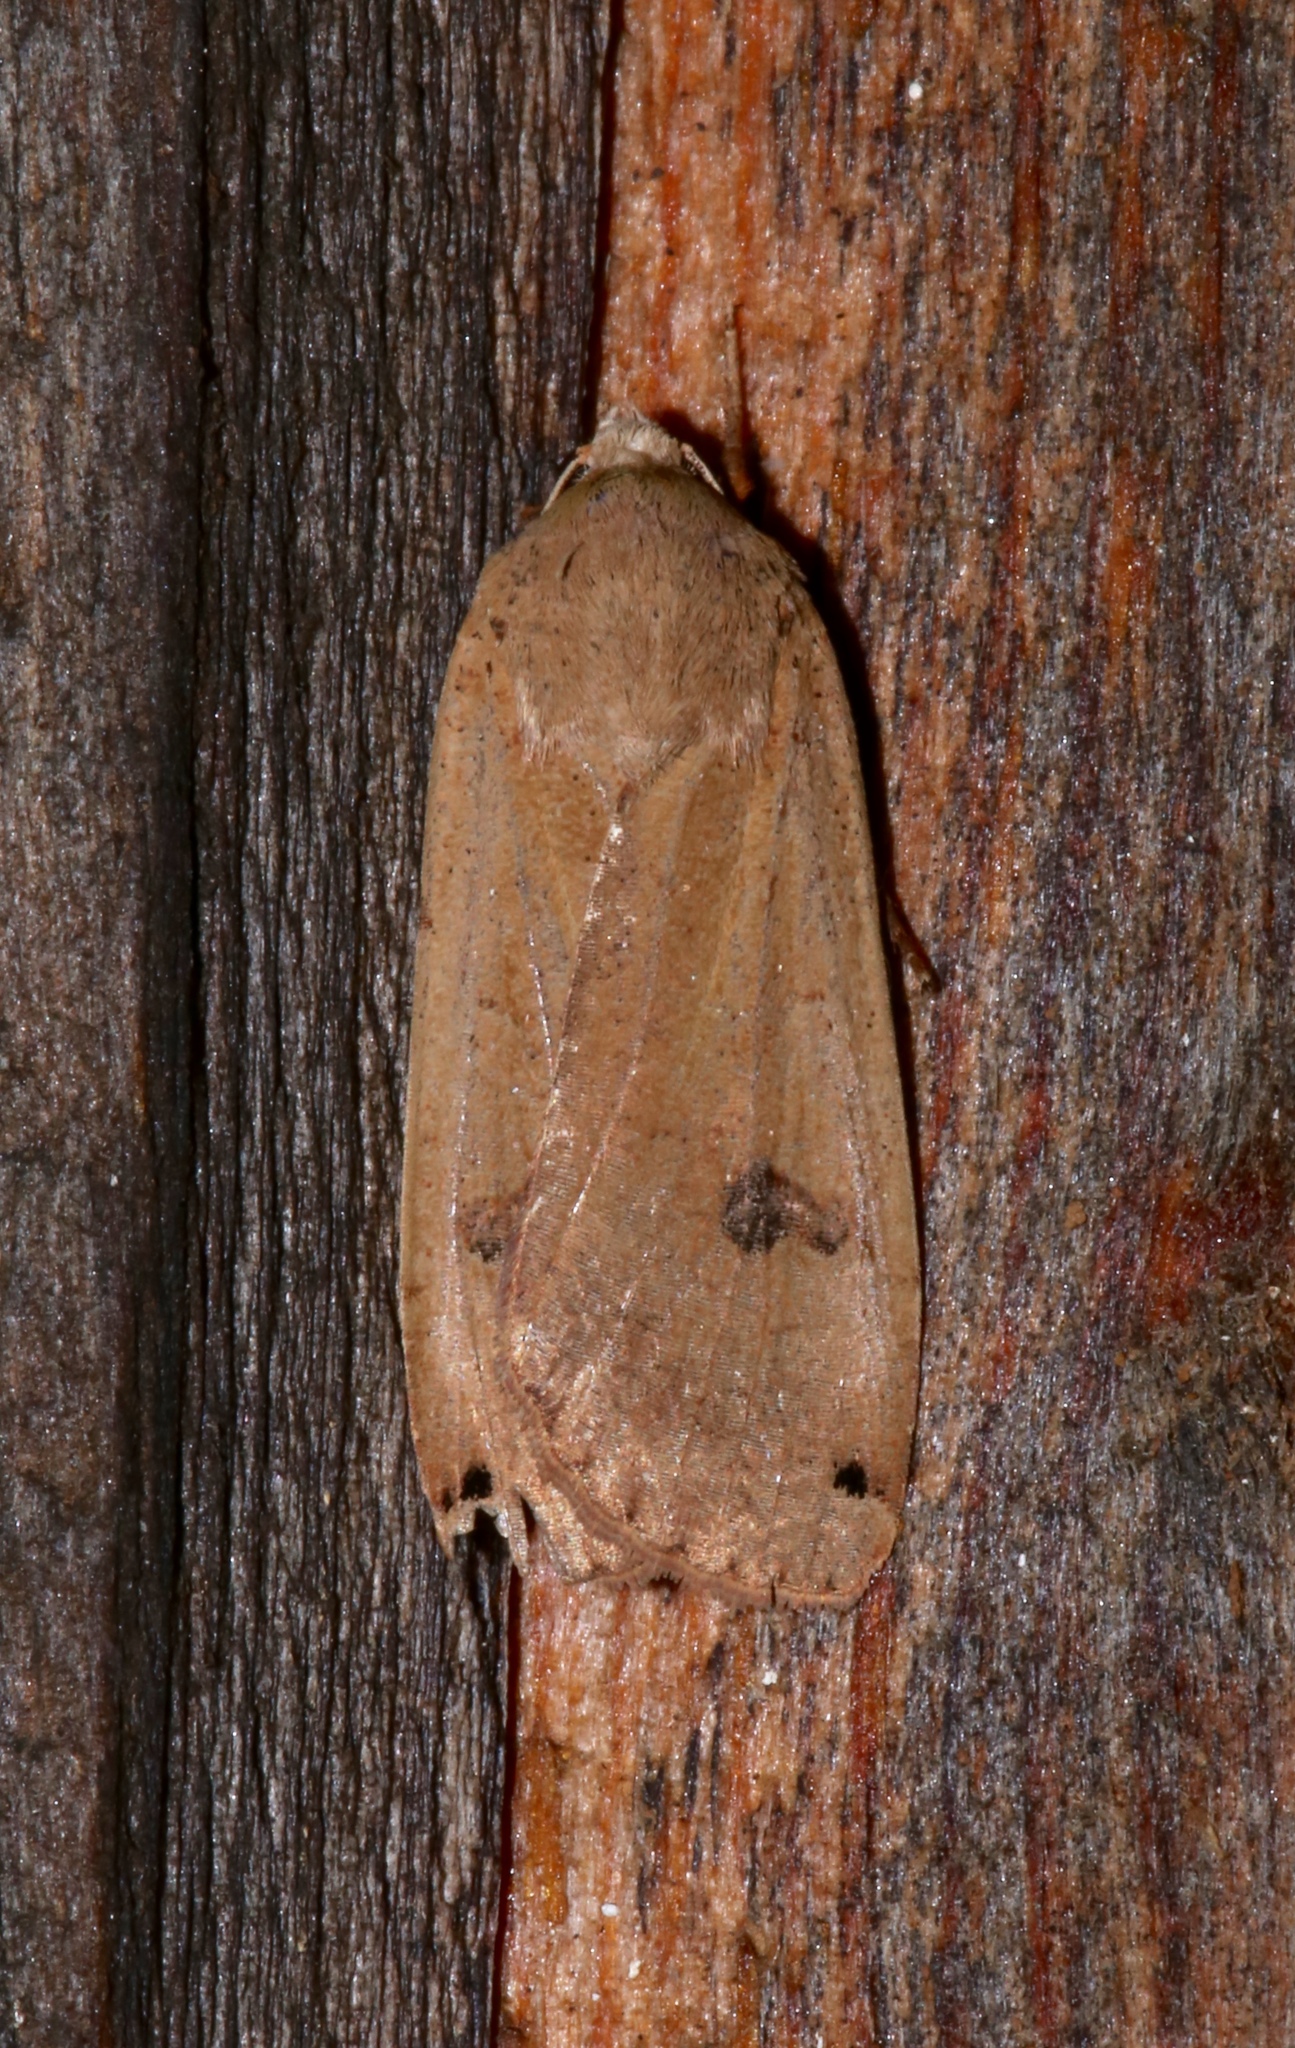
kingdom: Animalia
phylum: Arthropoda
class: Insecta
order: Lepidoptera
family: Noctuidae
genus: Noctua
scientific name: Noctua pronuba
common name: Large yellow underwing
